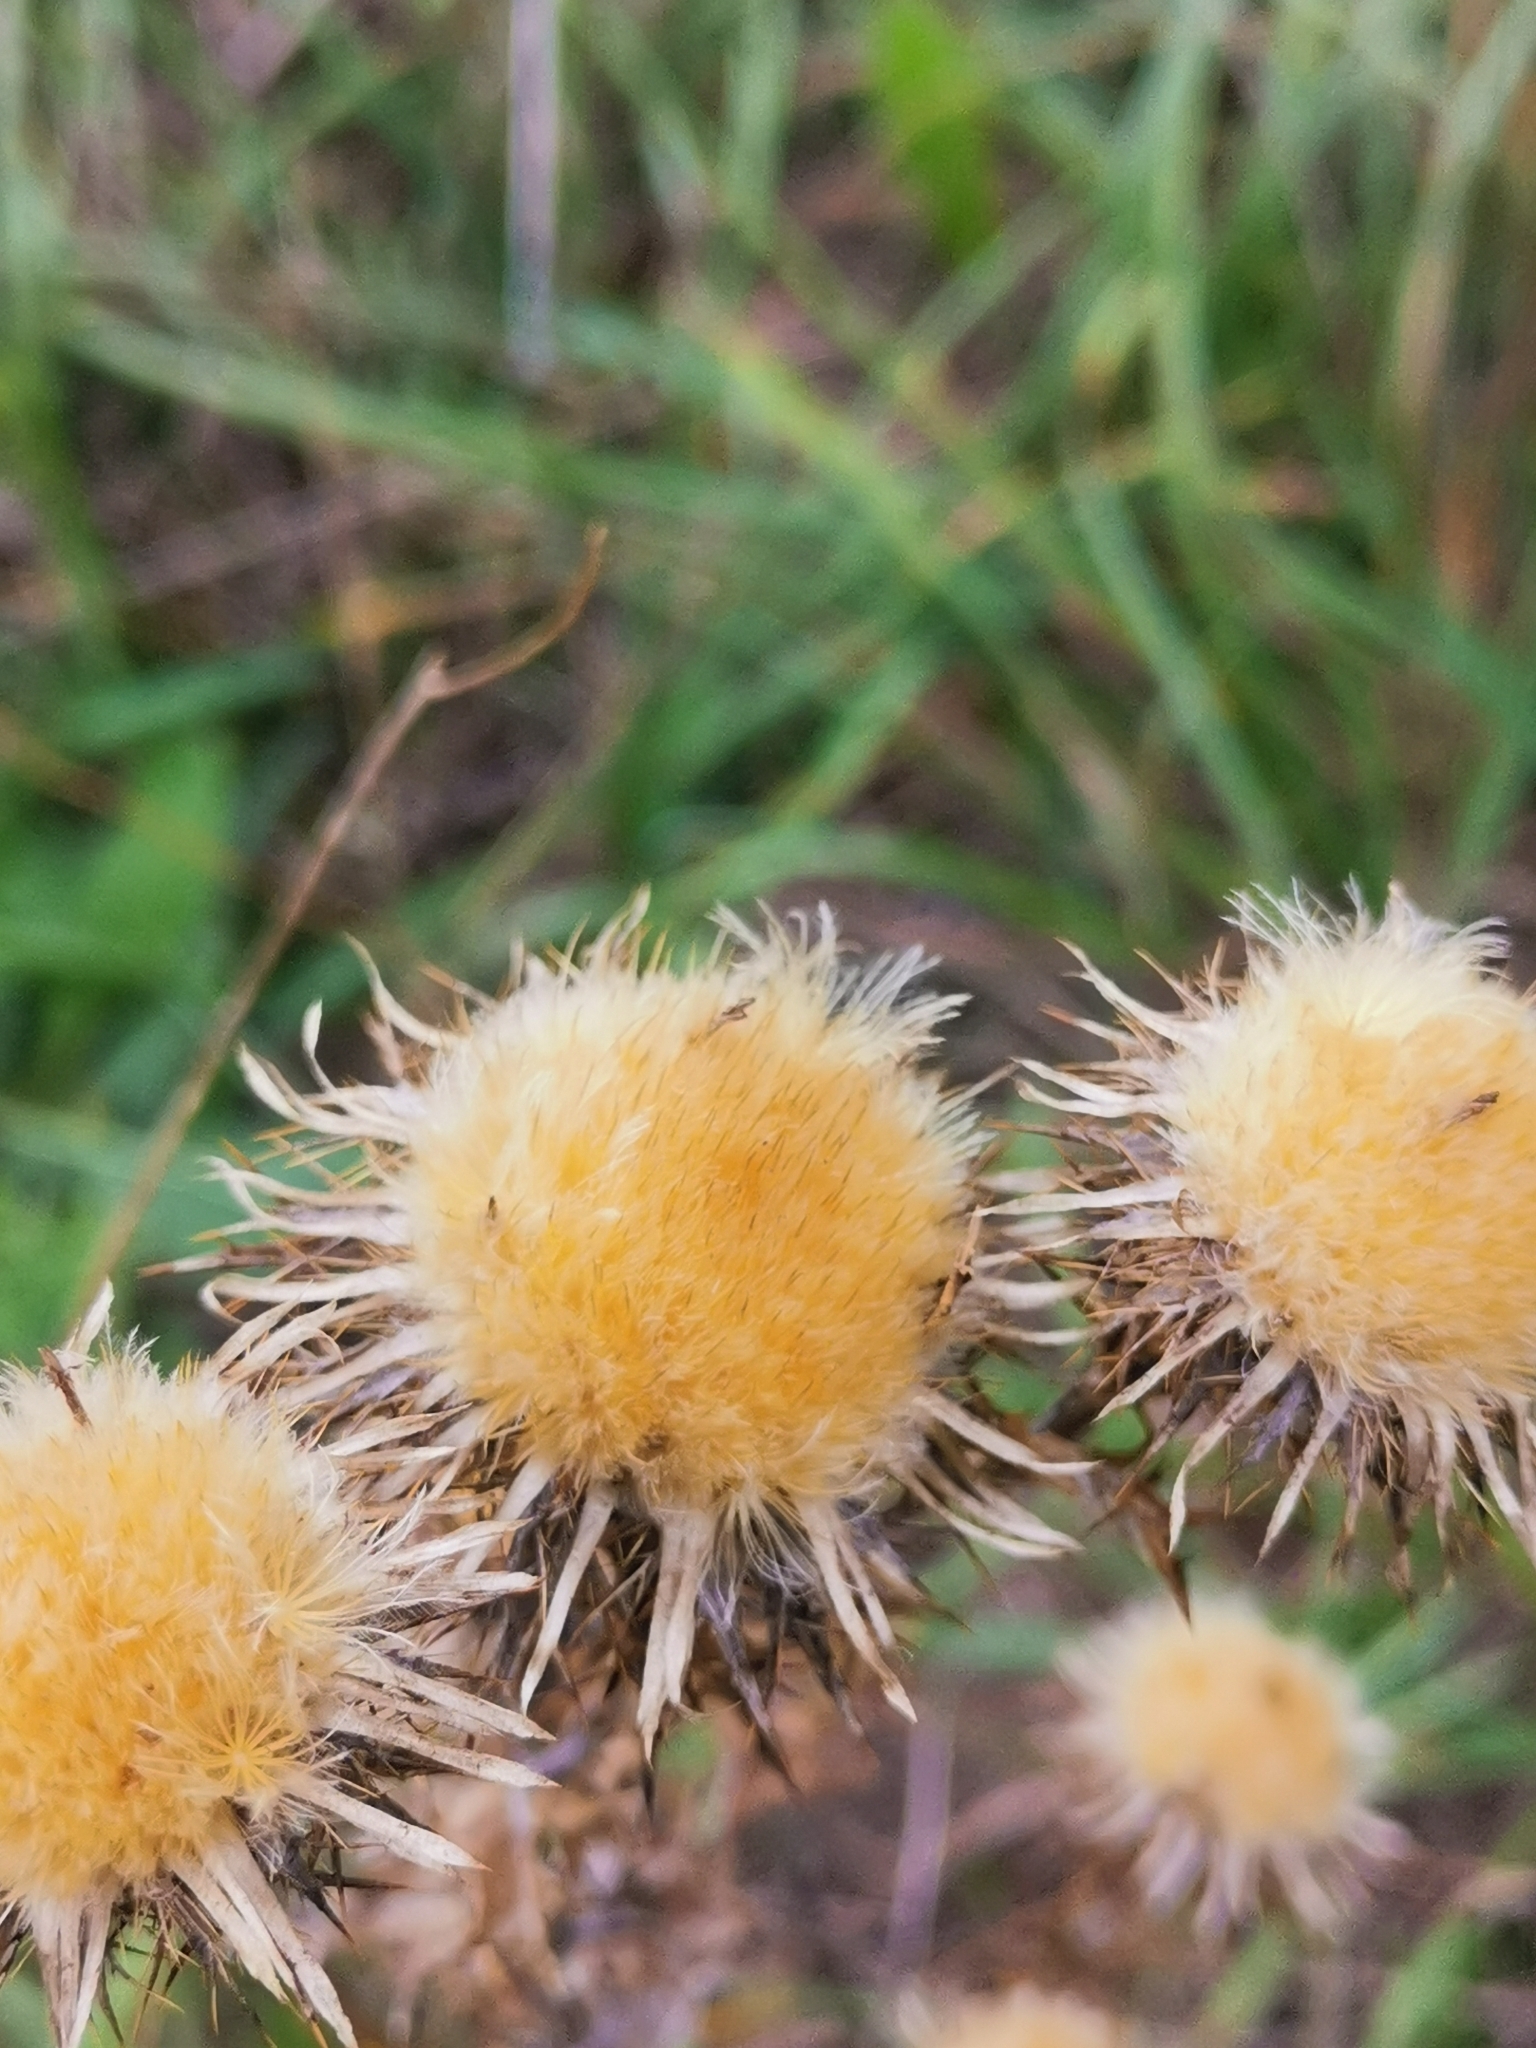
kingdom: Plantae
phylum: Tracheophyta
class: Magnoliopsida
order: Asterales
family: Asteraceae
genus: Carlina
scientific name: Carlina vulgaris
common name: Carline thistle
